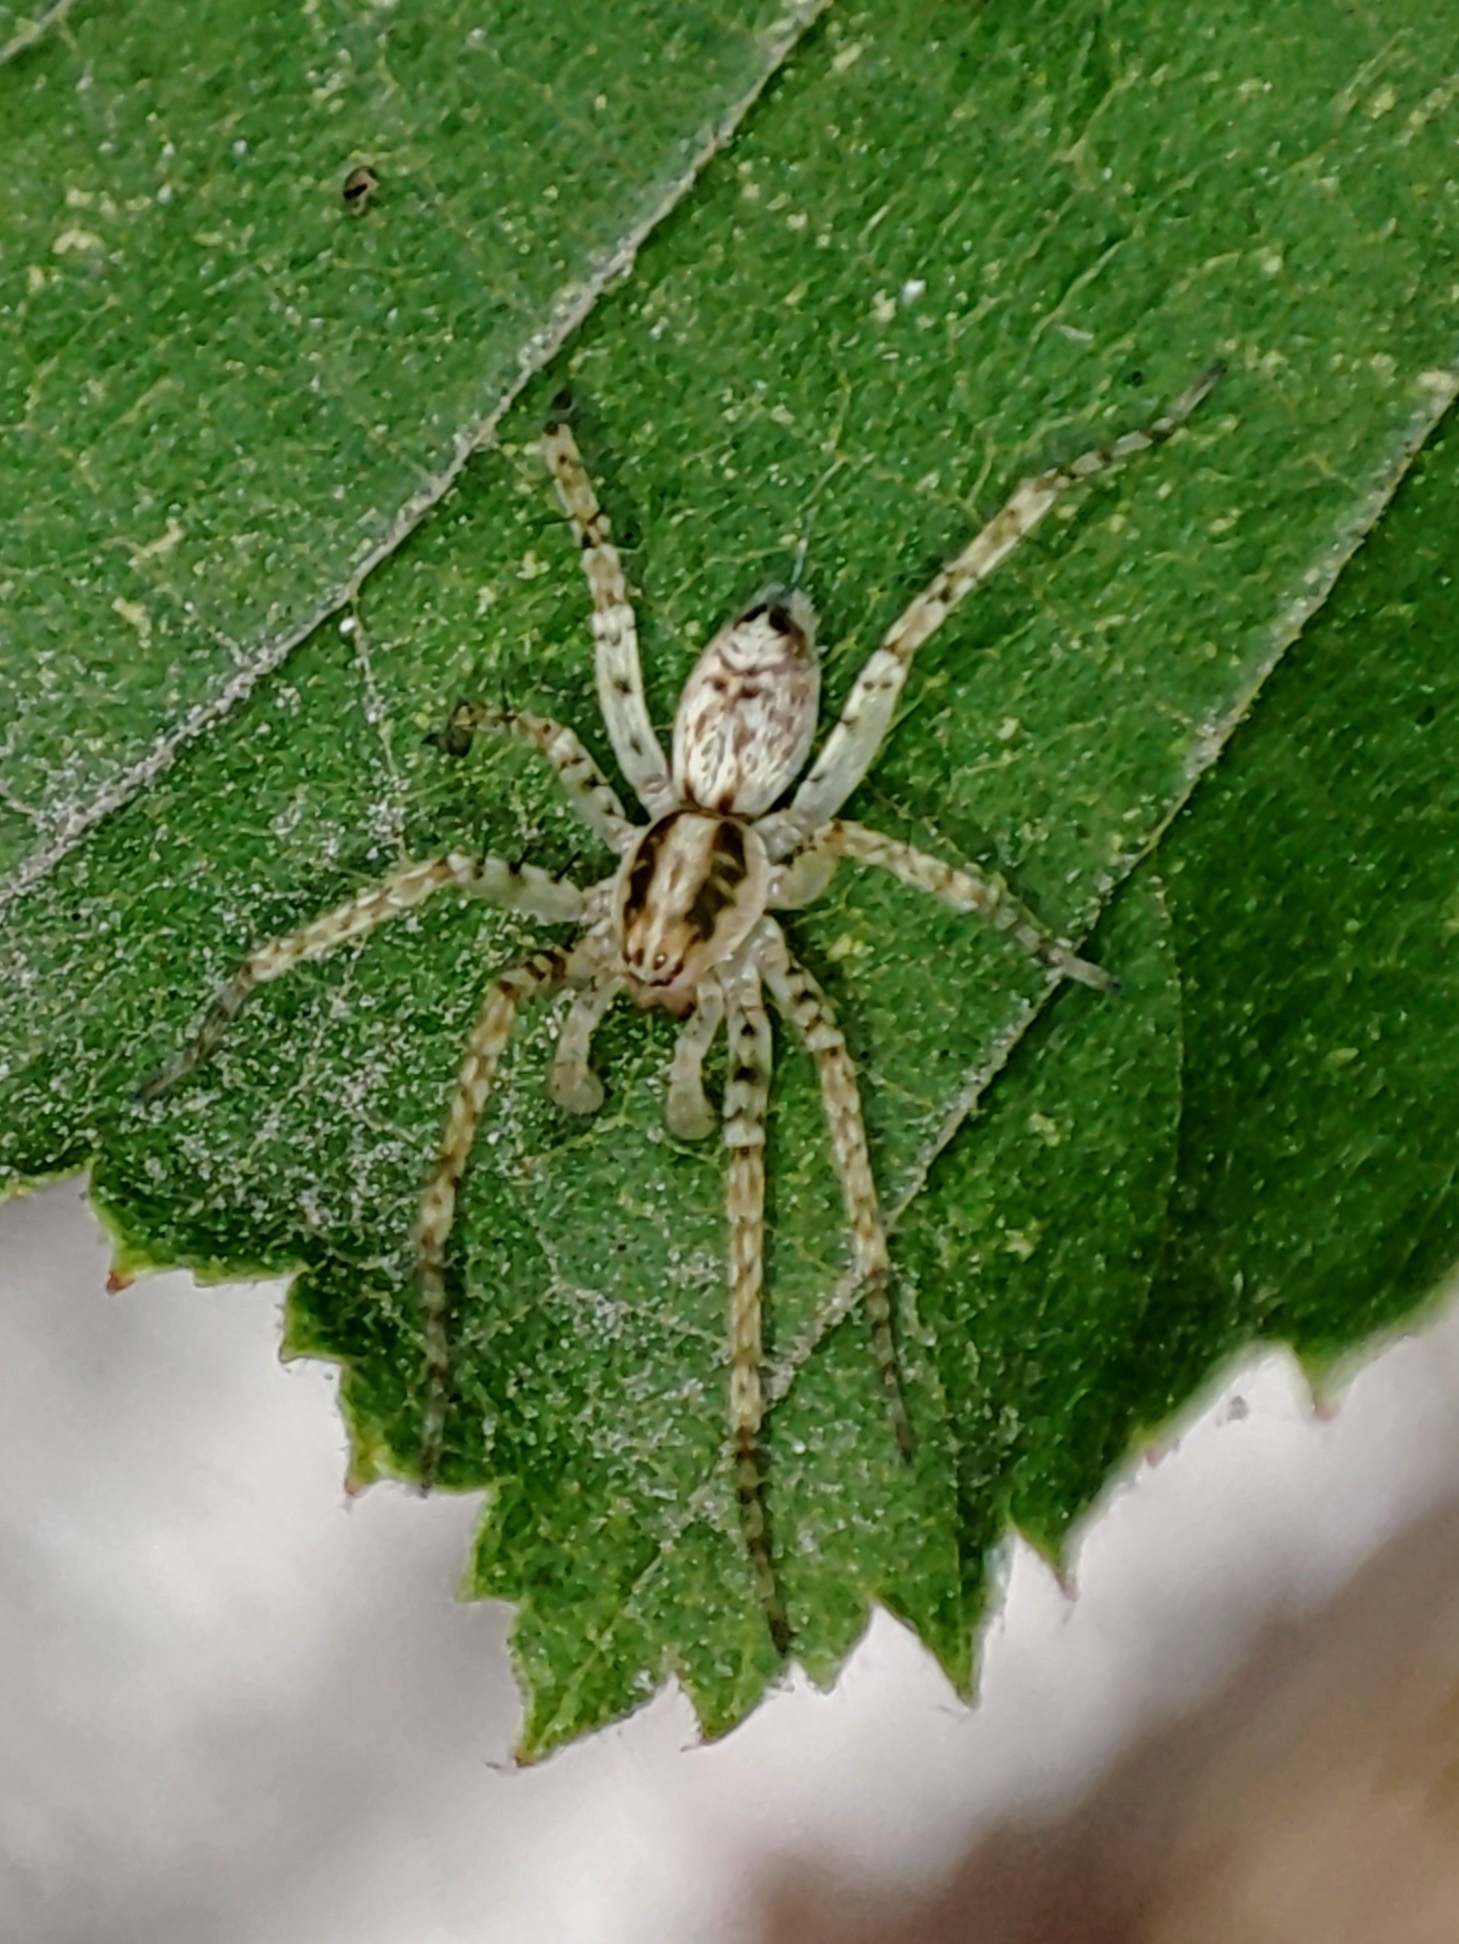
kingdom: Animalia
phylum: Arthropoda
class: Arachnida
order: Araneae
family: Anyphaenidae
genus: Anyphaena
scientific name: Anyphaena accentuata
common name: Buzzing spider
